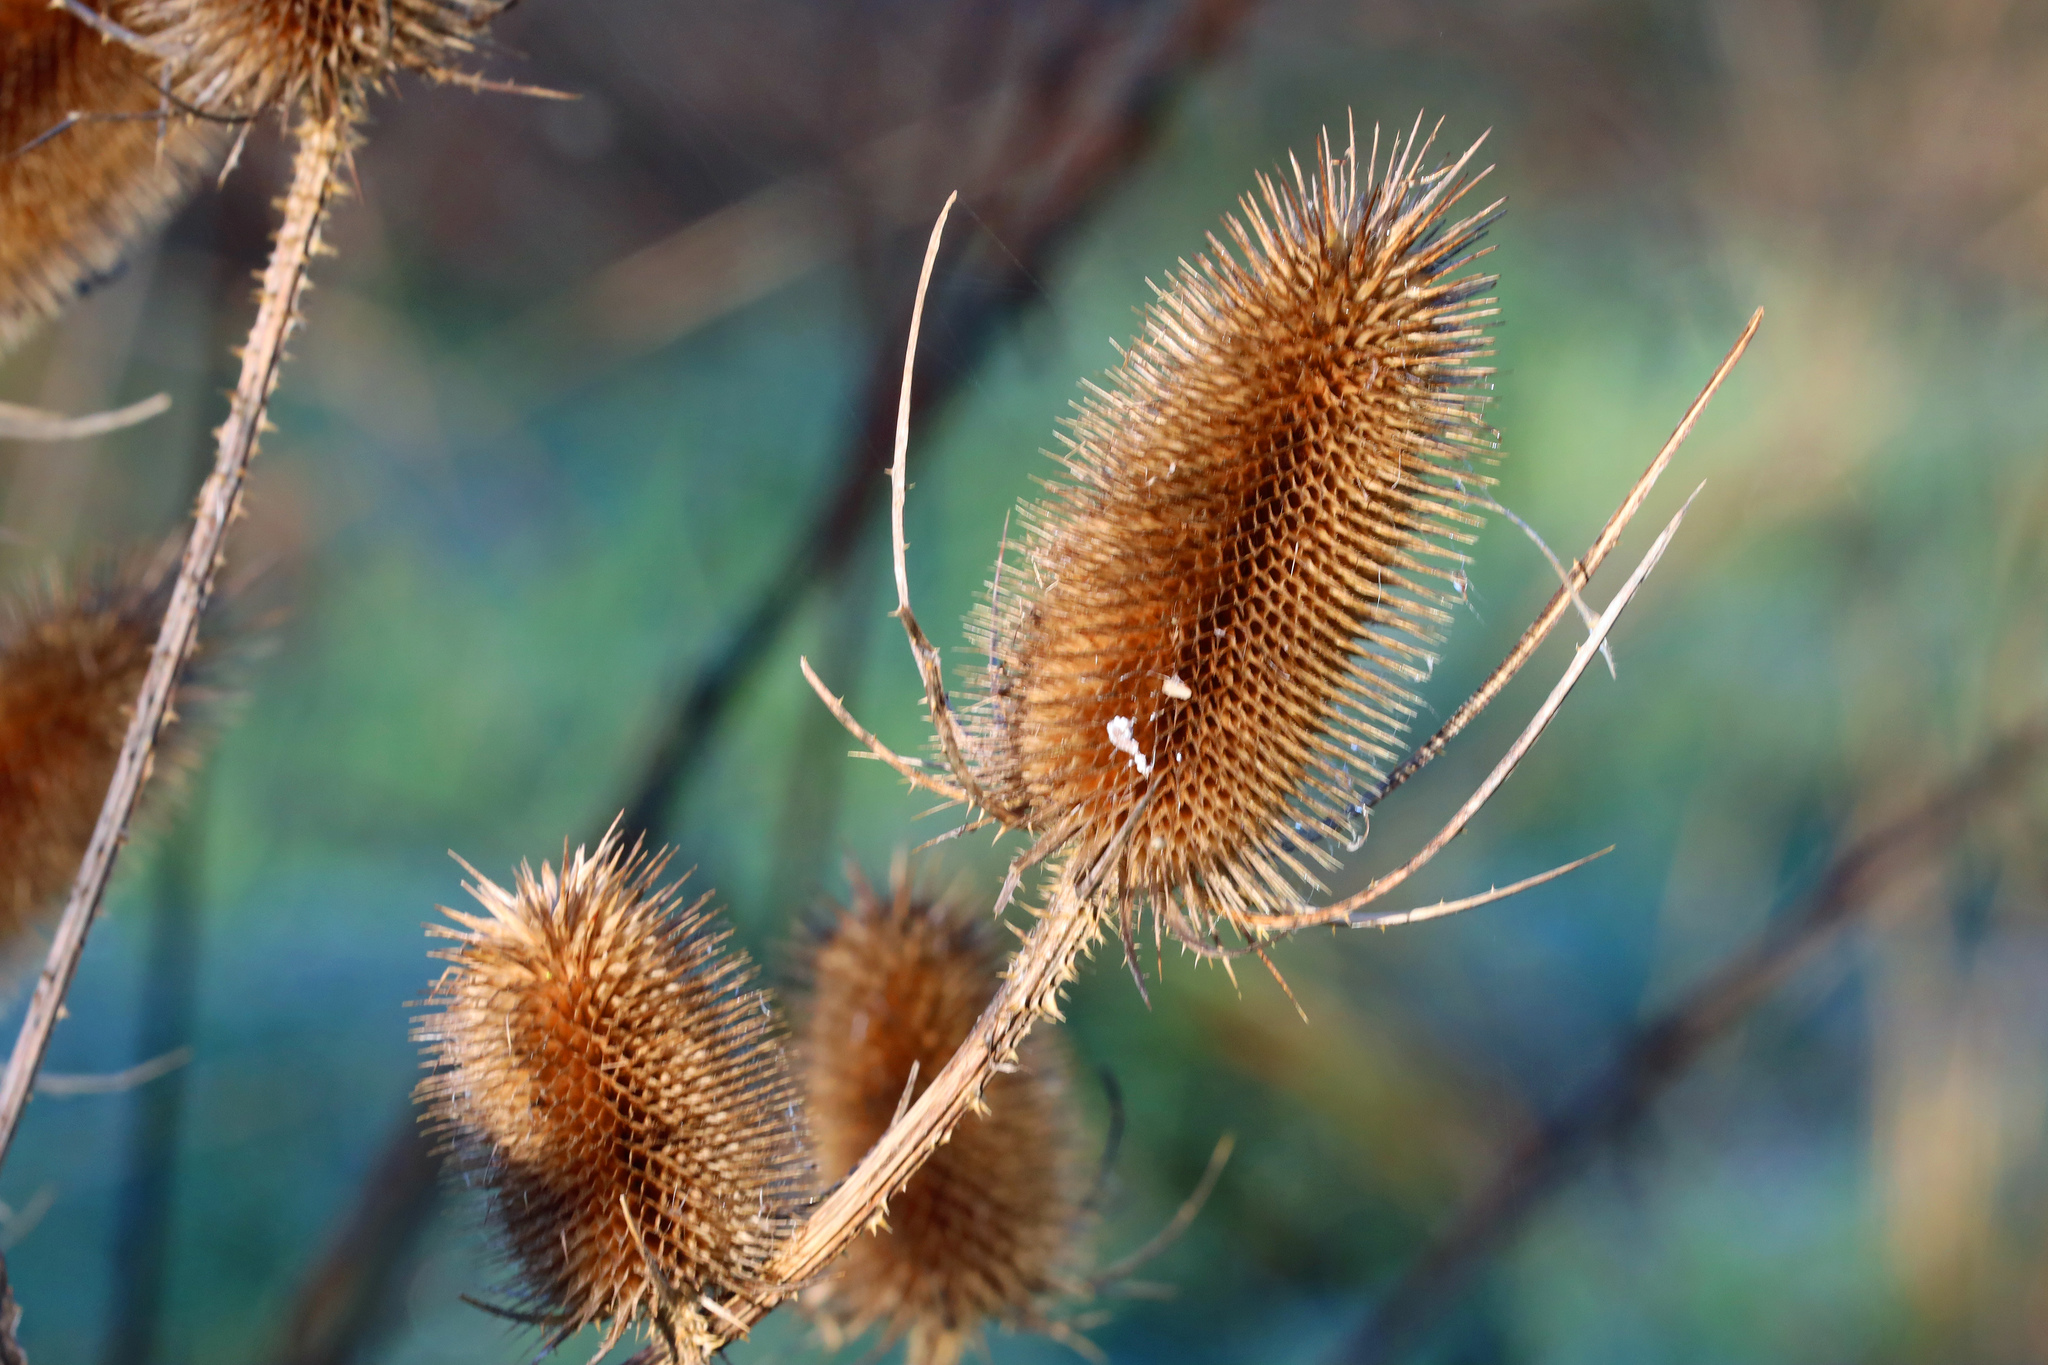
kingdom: Plantae
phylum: Tracheophyta
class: Magnoliopsida
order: Dipsacales
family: Caprifoliaceae
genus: Dipsacus
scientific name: Dipsacus fullonum
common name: Teasel
